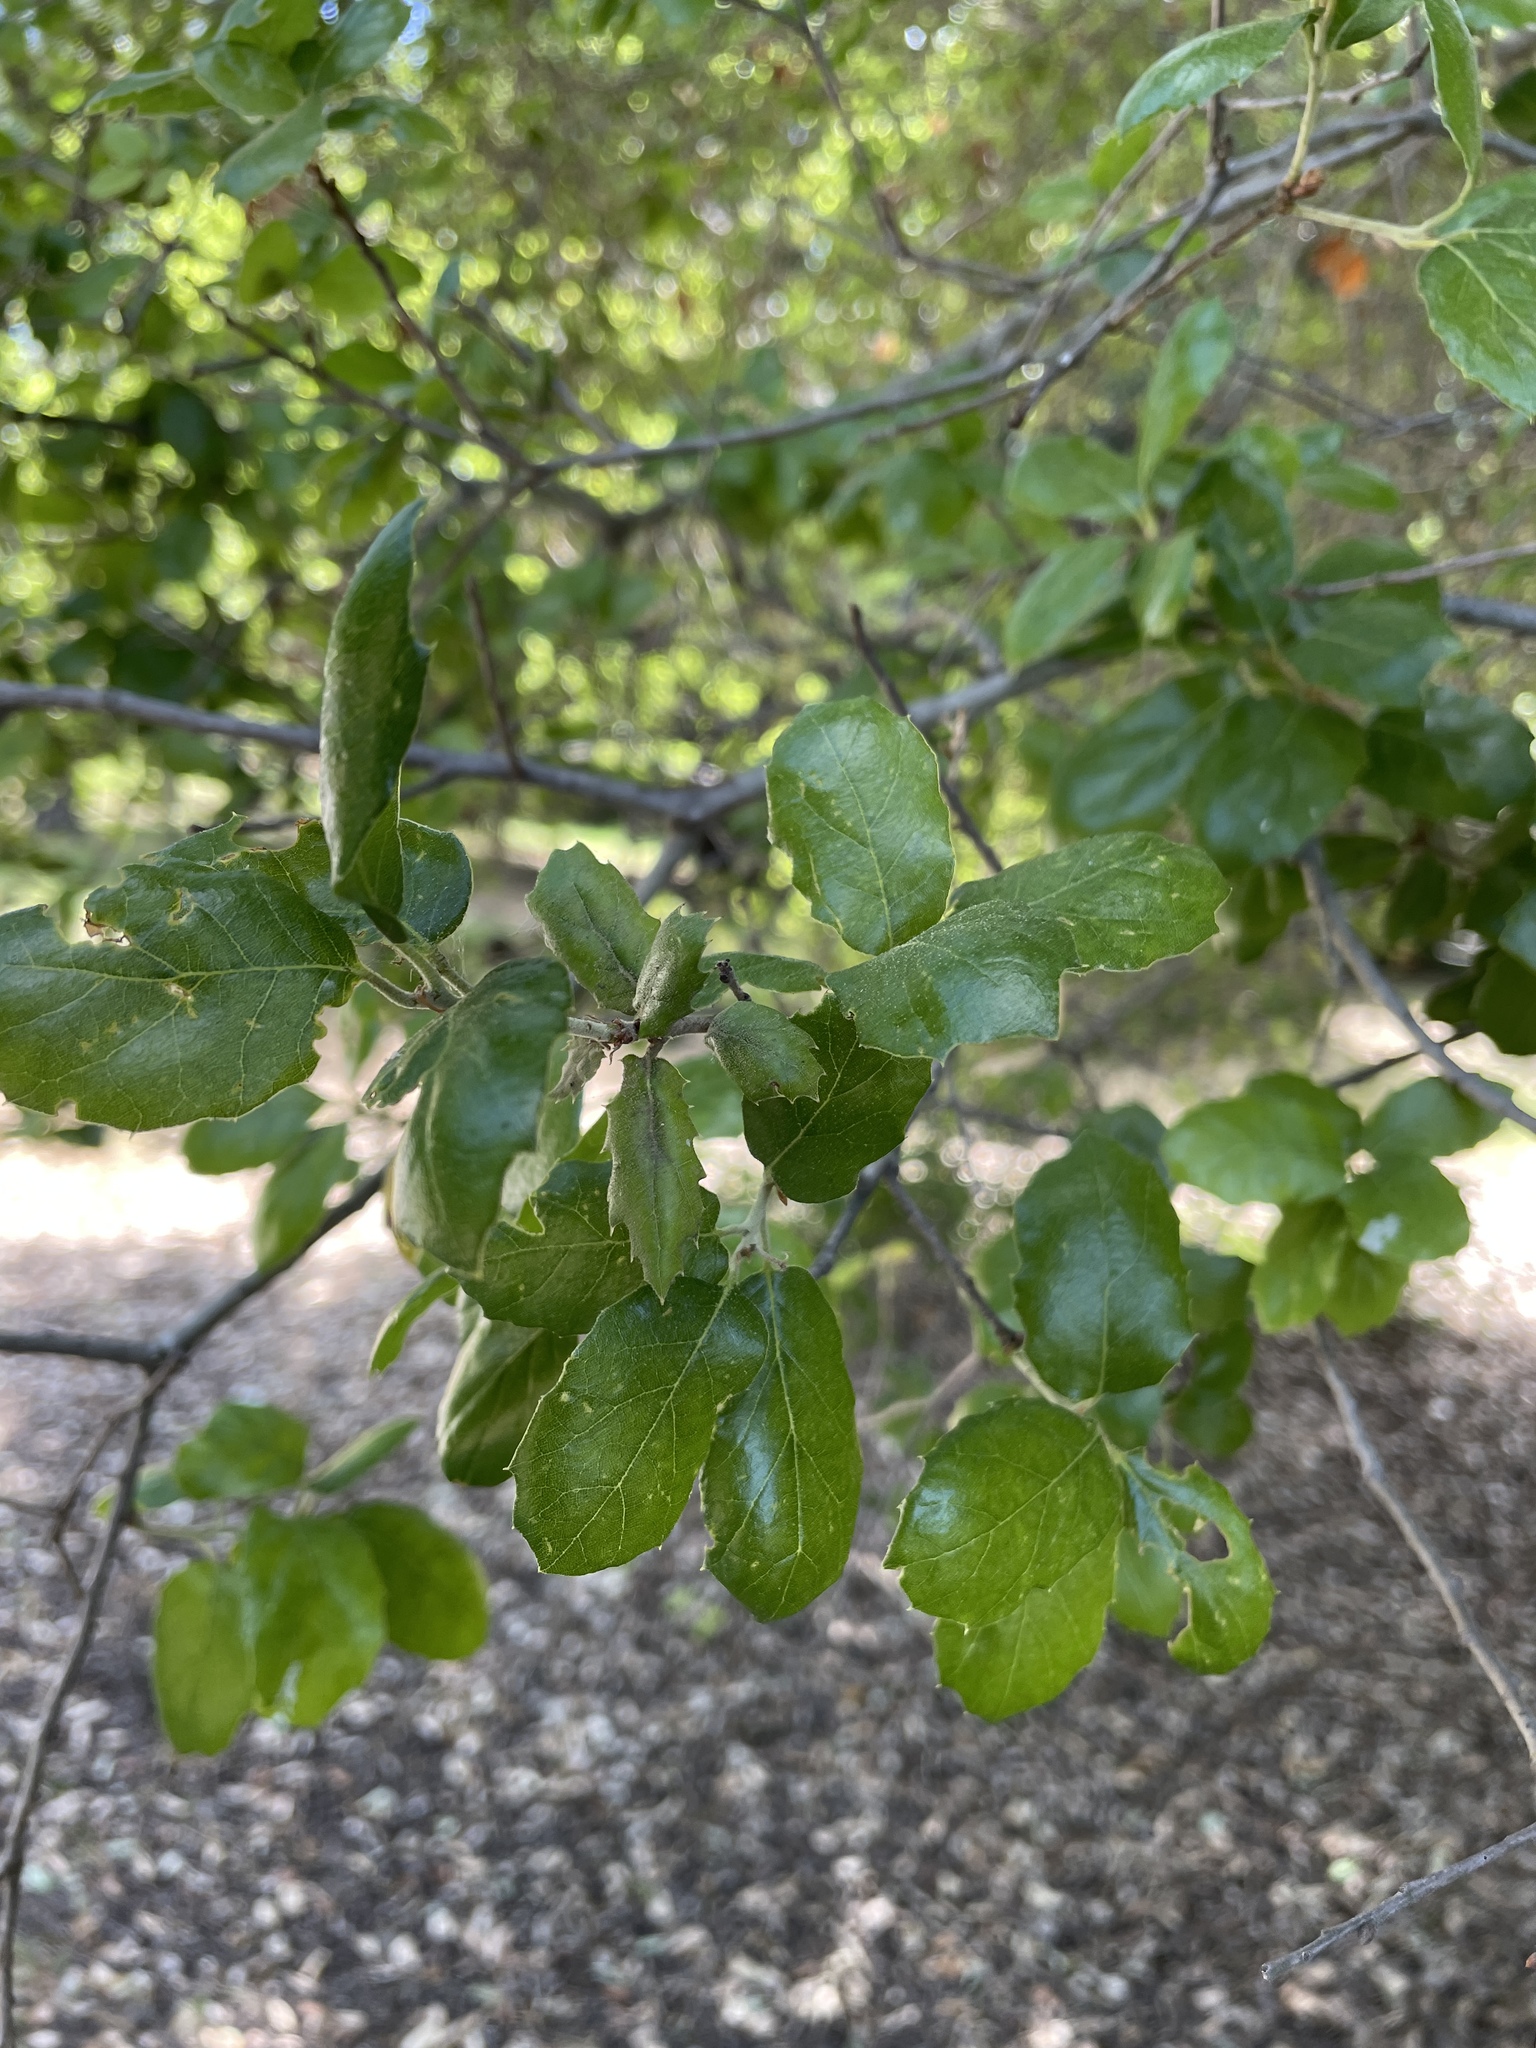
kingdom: Plantae
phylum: Tracheophyta
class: Magnoliopsida
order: Fagales
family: Fagaceae
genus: Quercus
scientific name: Quercus agrifolia
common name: California live oak
